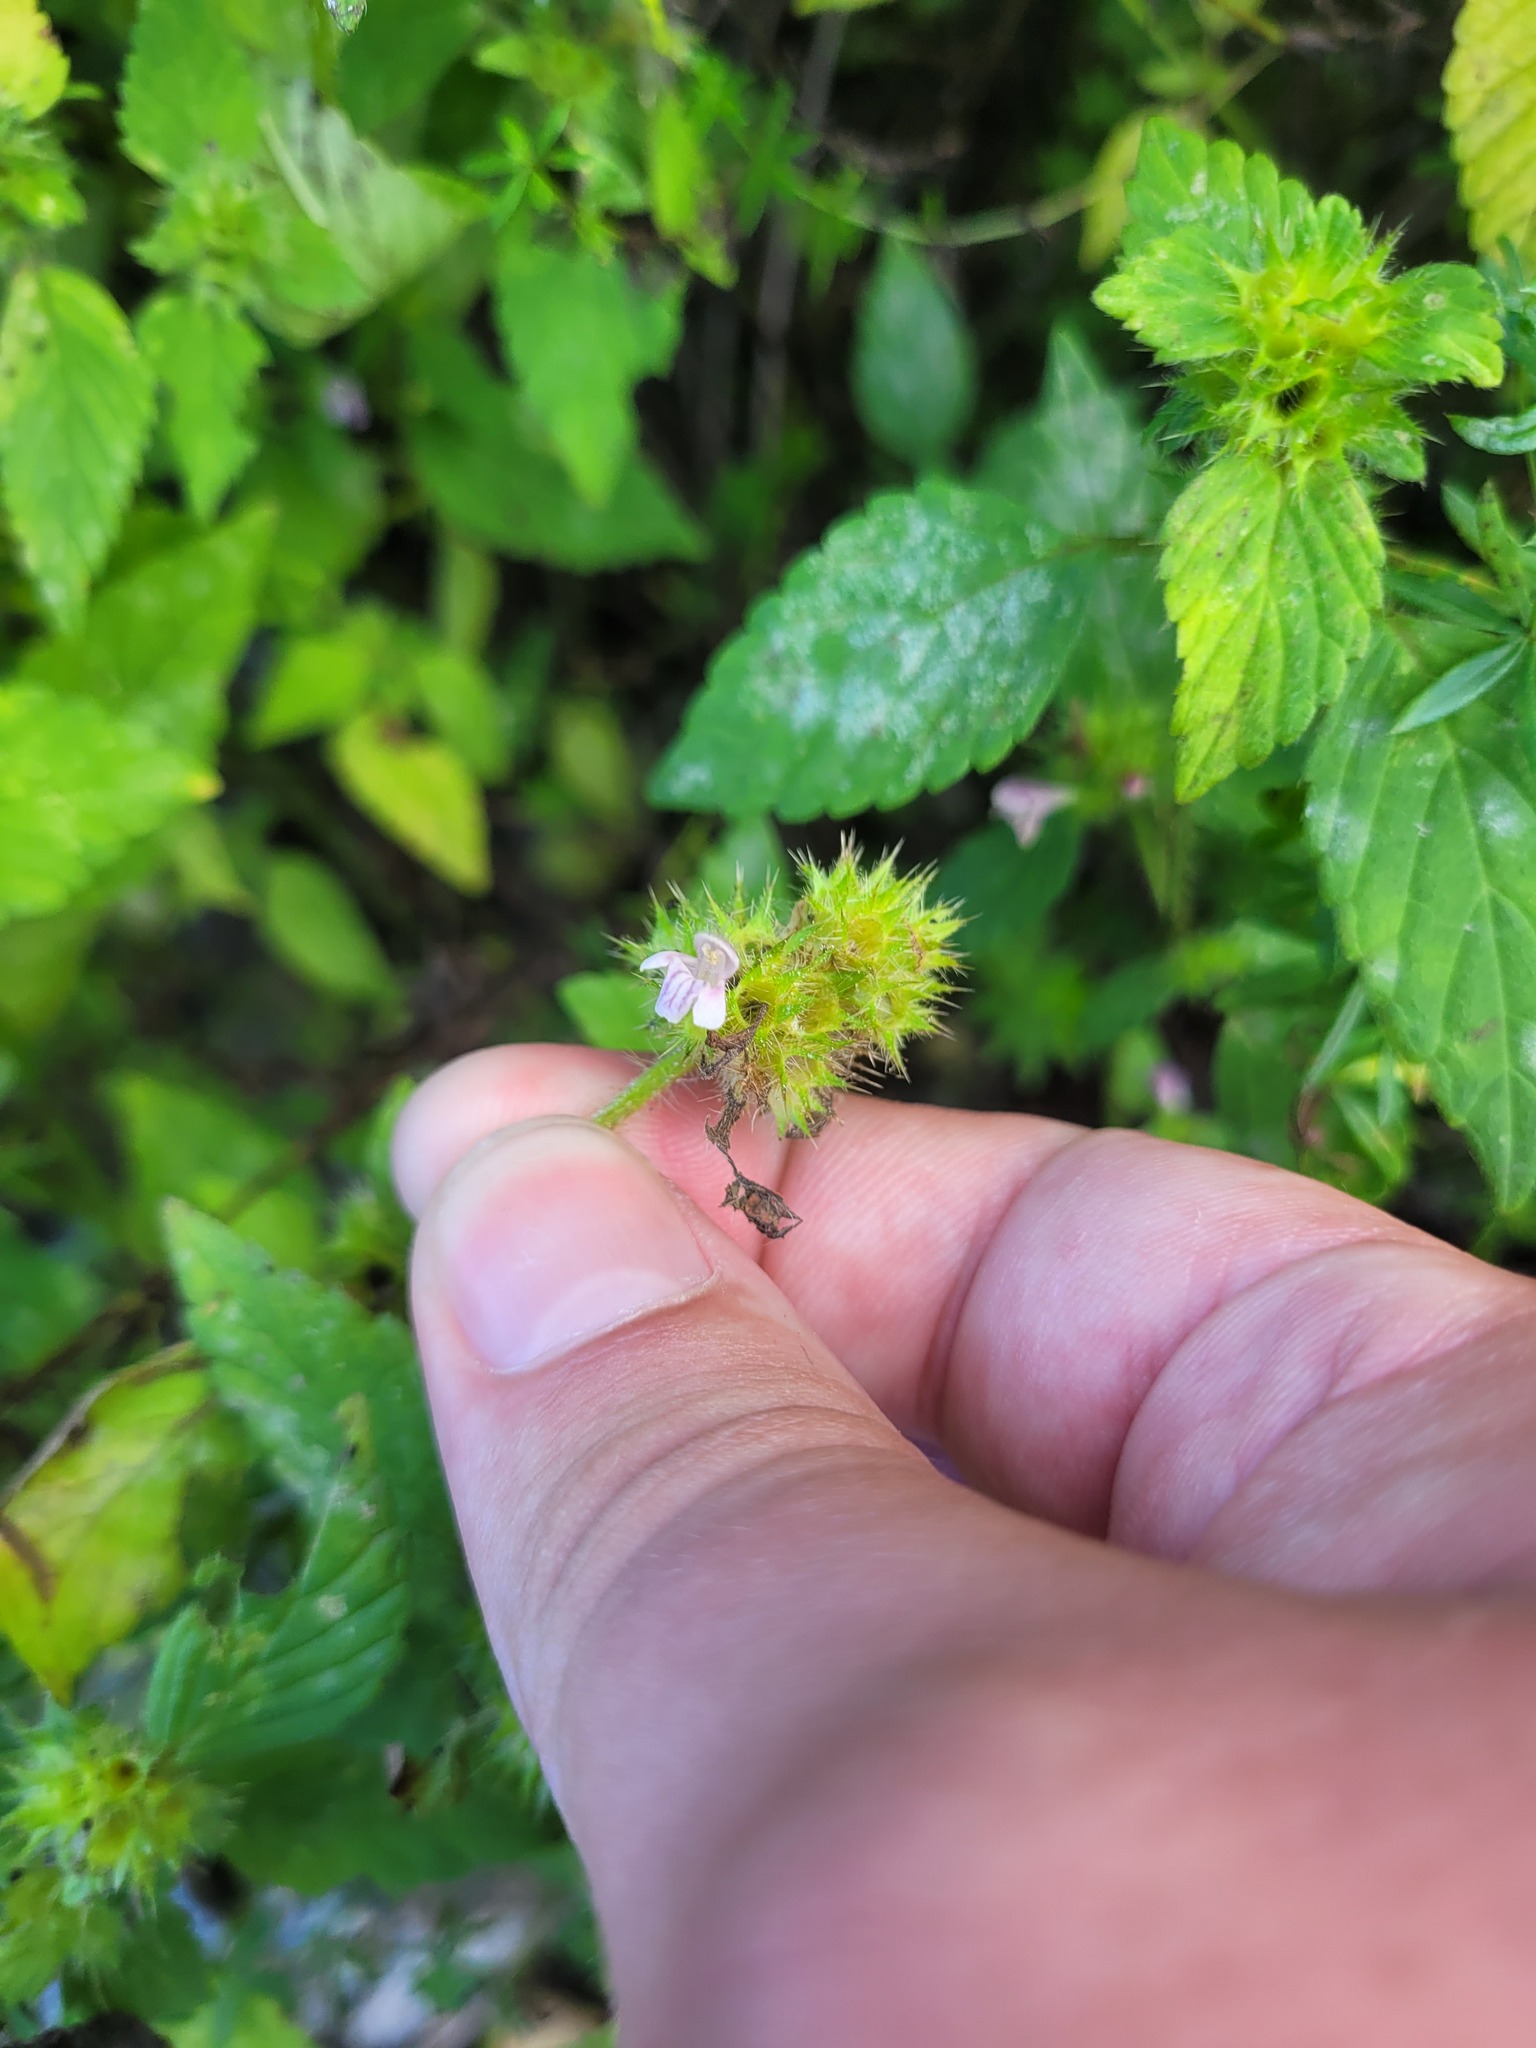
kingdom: Plantae
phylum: Tracheophyta
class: Magnoliopsida
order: Lamiales
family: Lamiaceae
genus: Galeopsis
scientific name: Galeopsis bifida
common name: Bifid hemp-nettle
